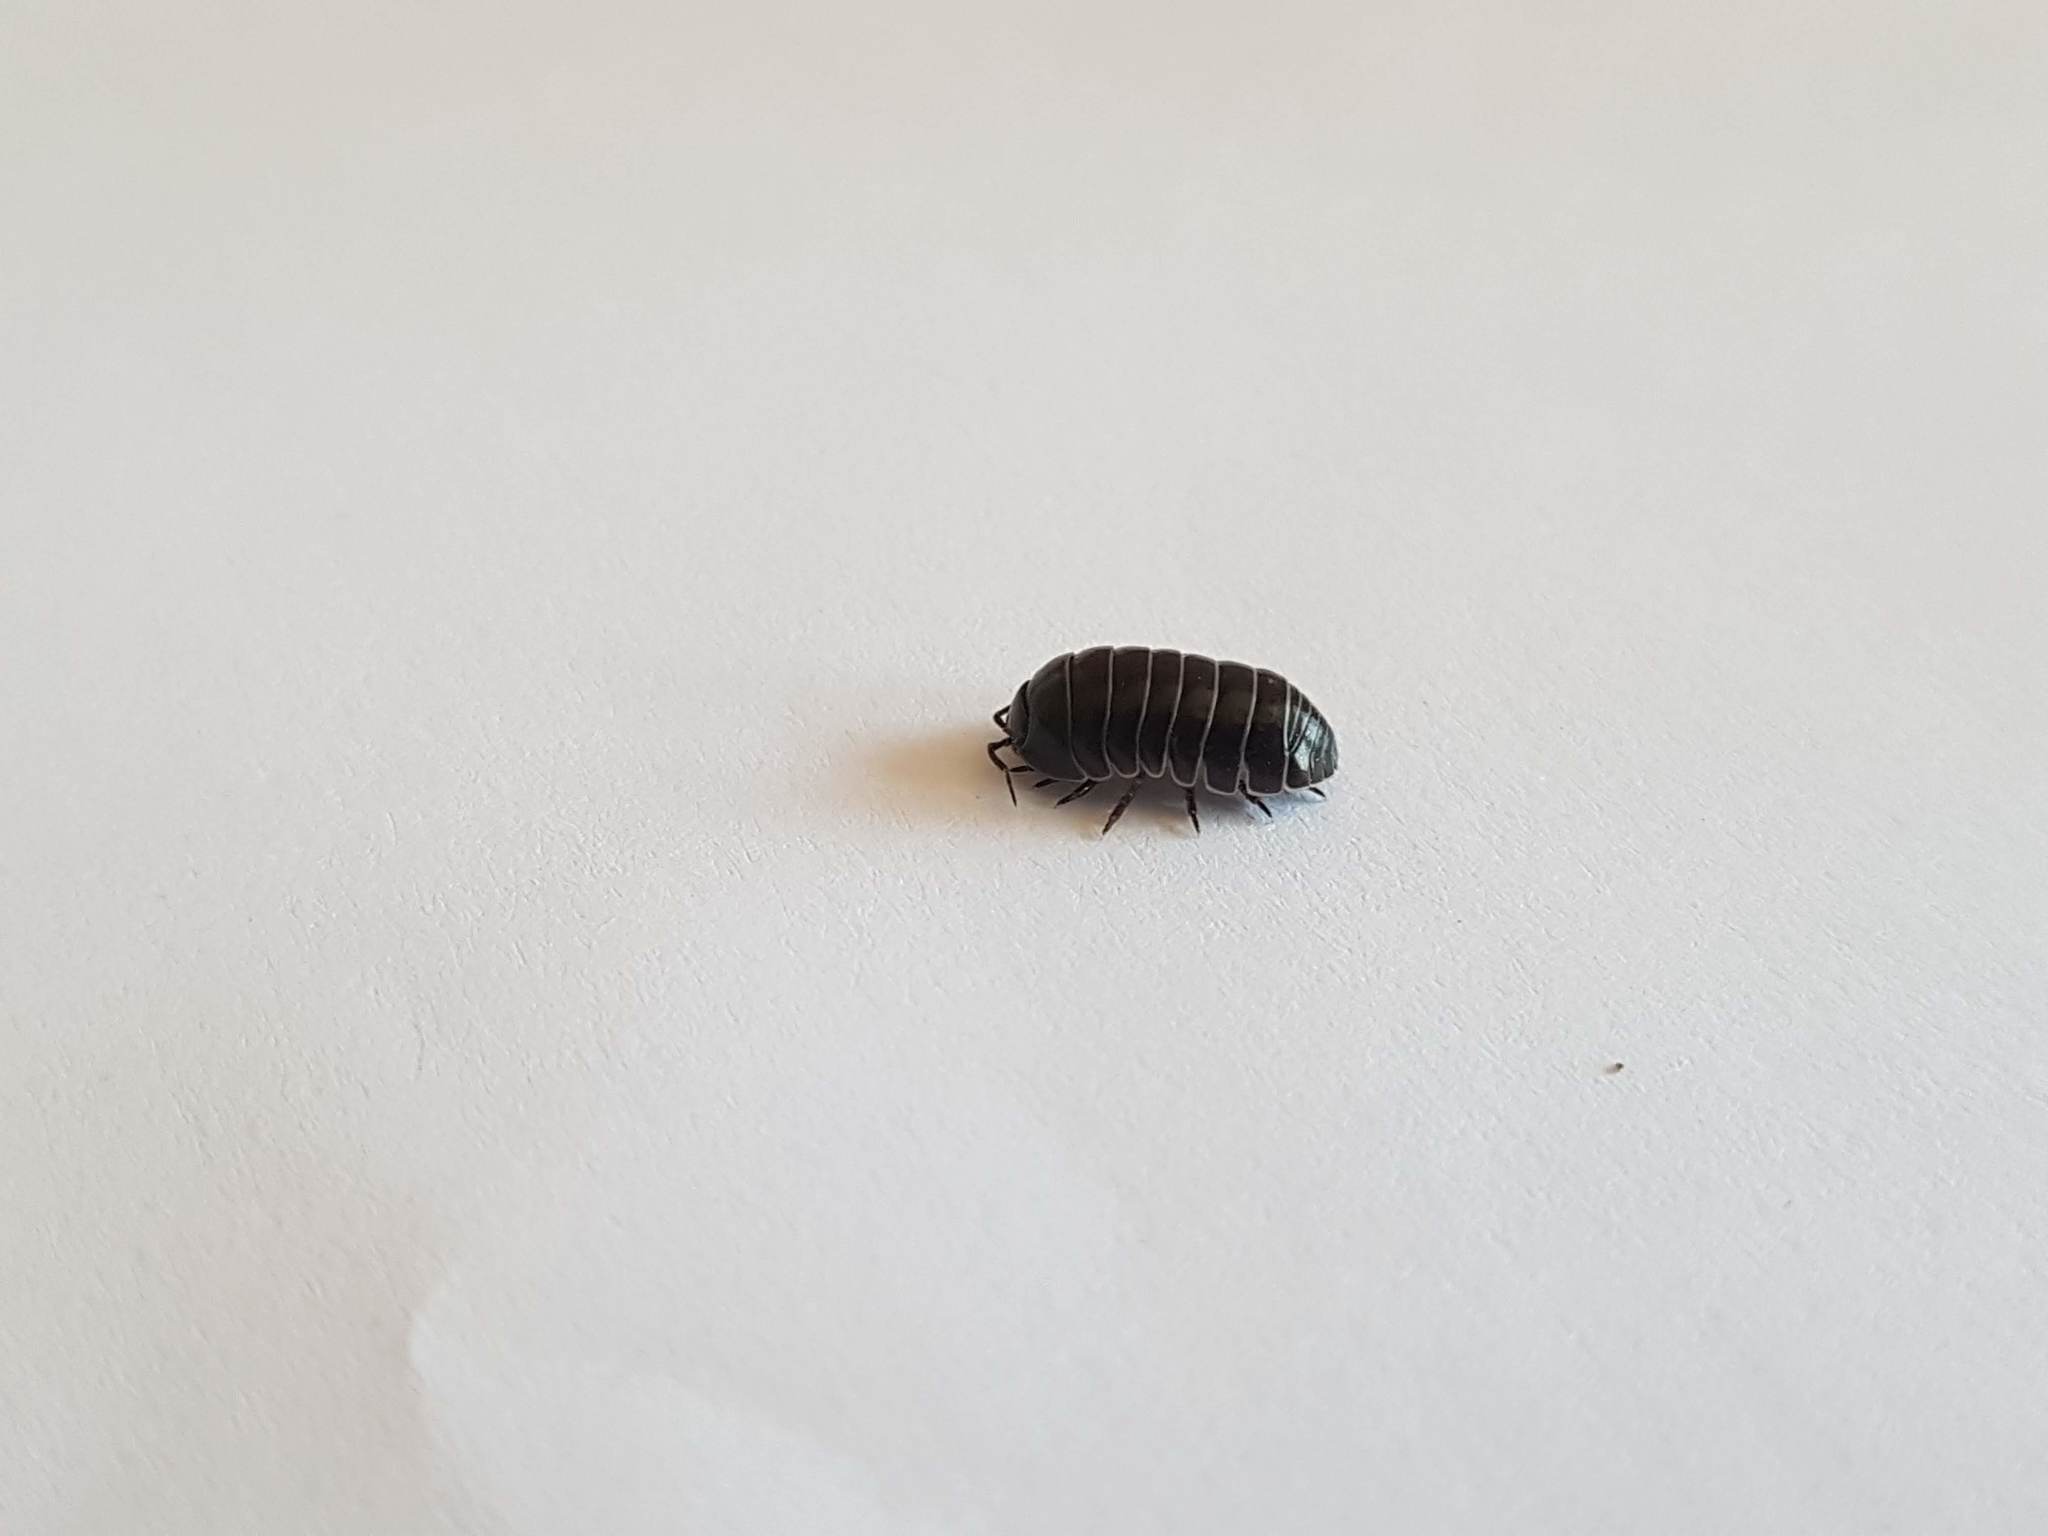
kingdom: Animalia
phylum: Arthropoda
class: Malacostraca
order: Isopoda
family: Armadillidiidae
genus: Armadillidium
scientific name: Armadillidium vulgare
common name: Common pill woodlouse
